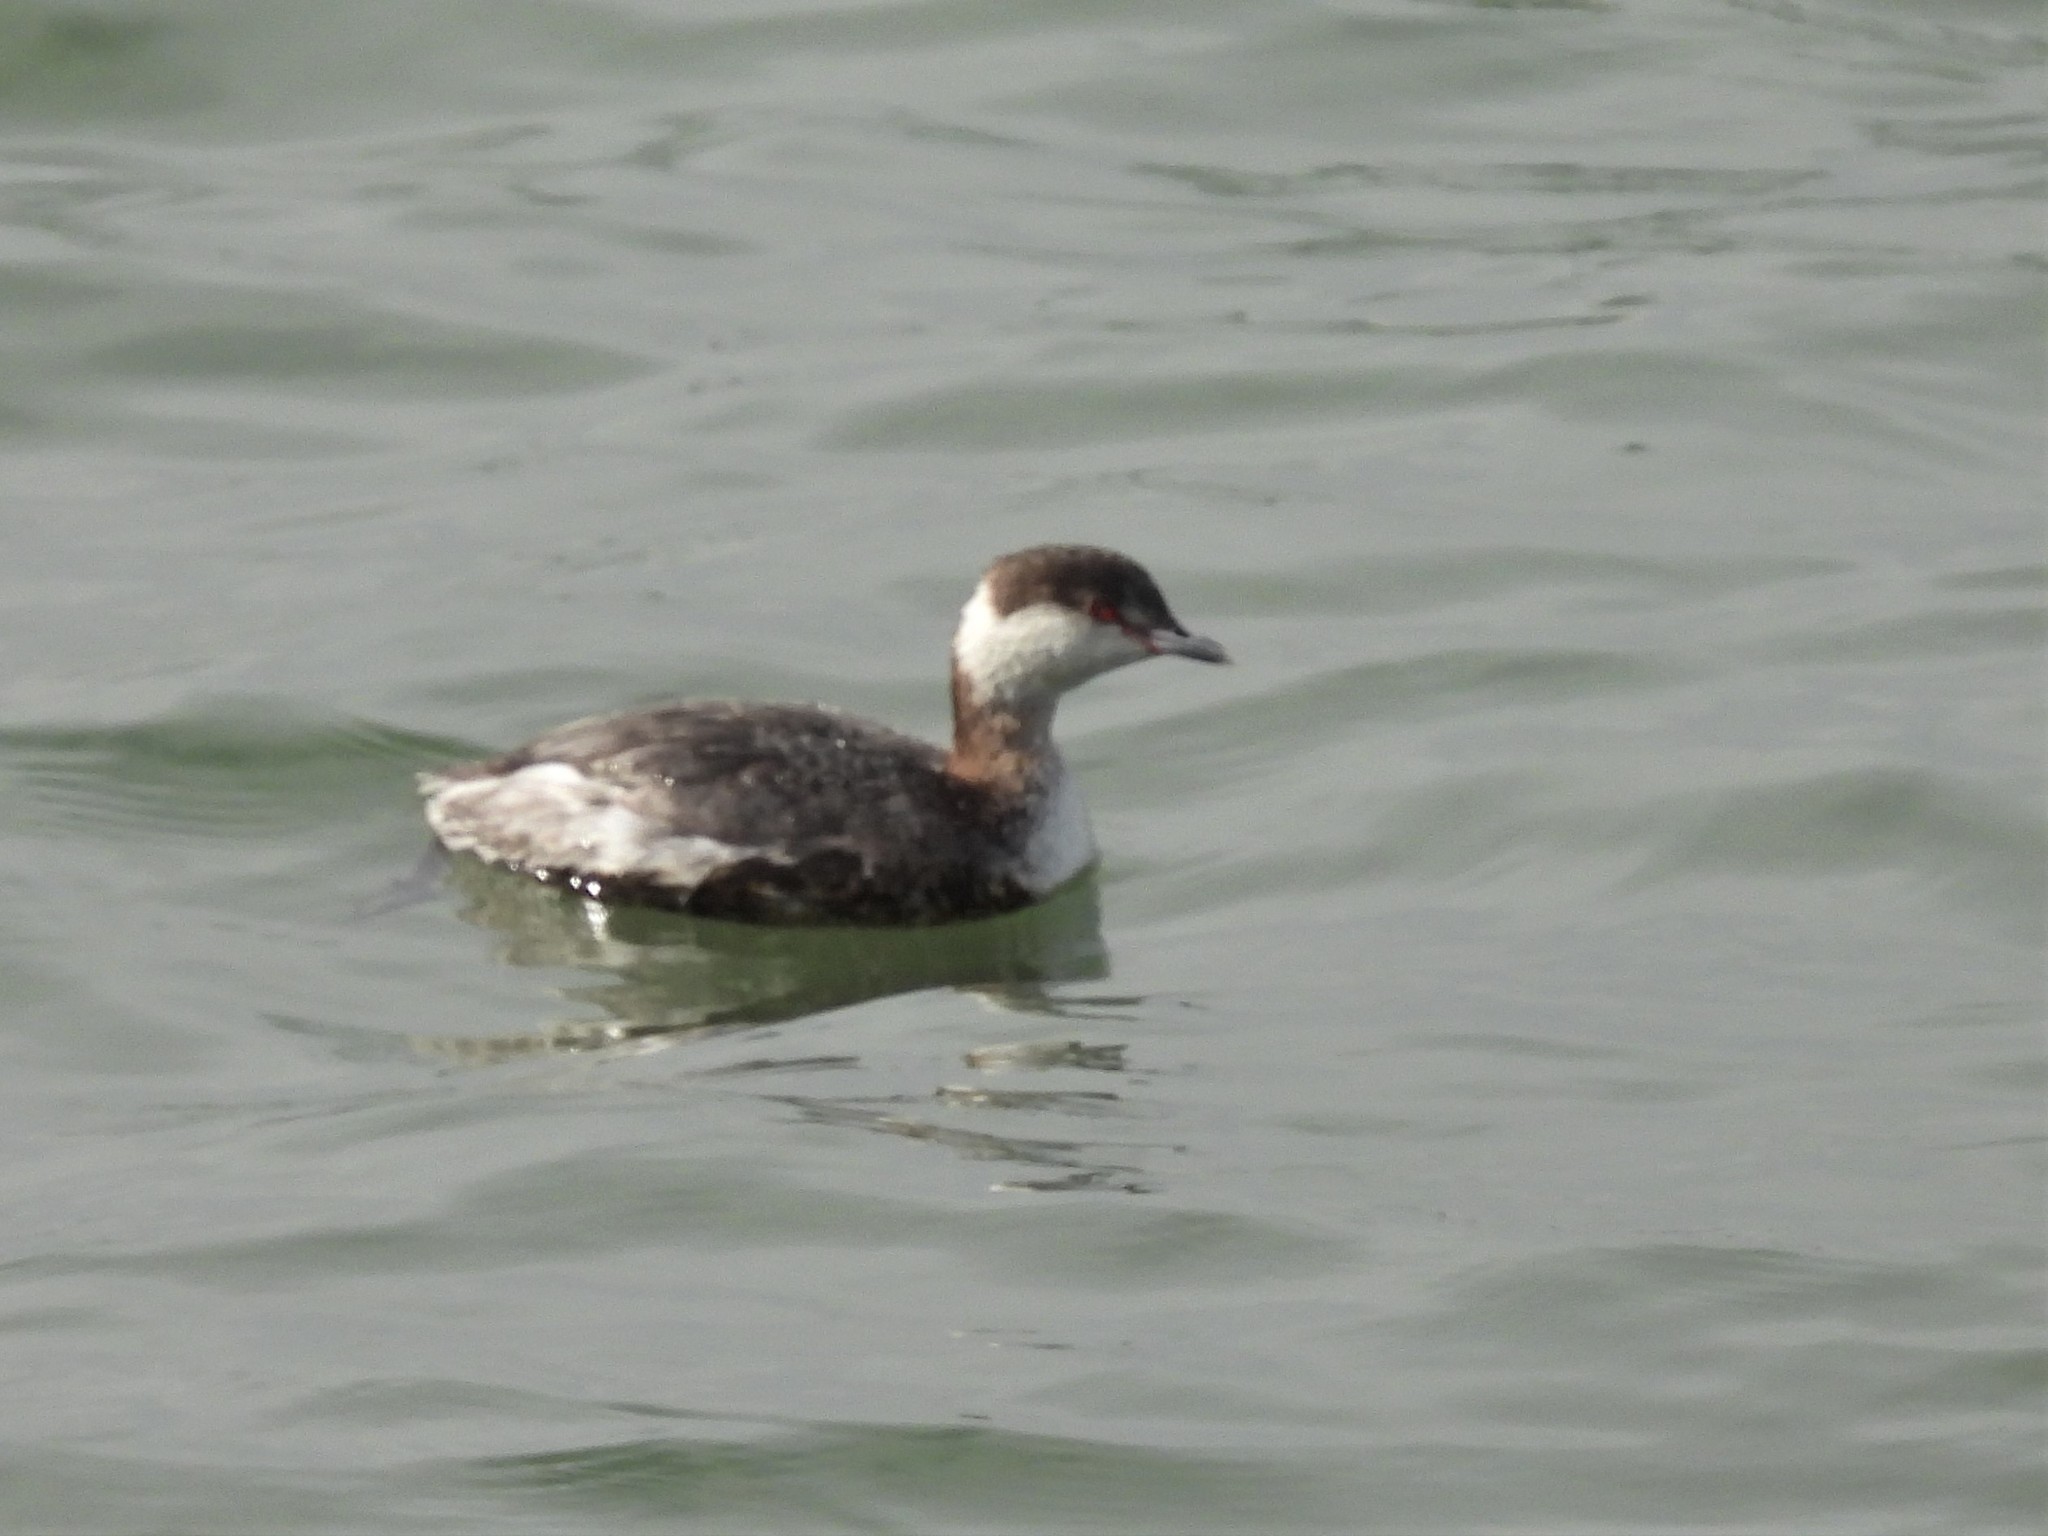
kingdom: Animalia
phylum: Chordata
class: Aves
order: Podicipediformes
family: Podicipedidae
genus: Podiceps
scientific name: Podiceps auritus
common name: Horned grebe
